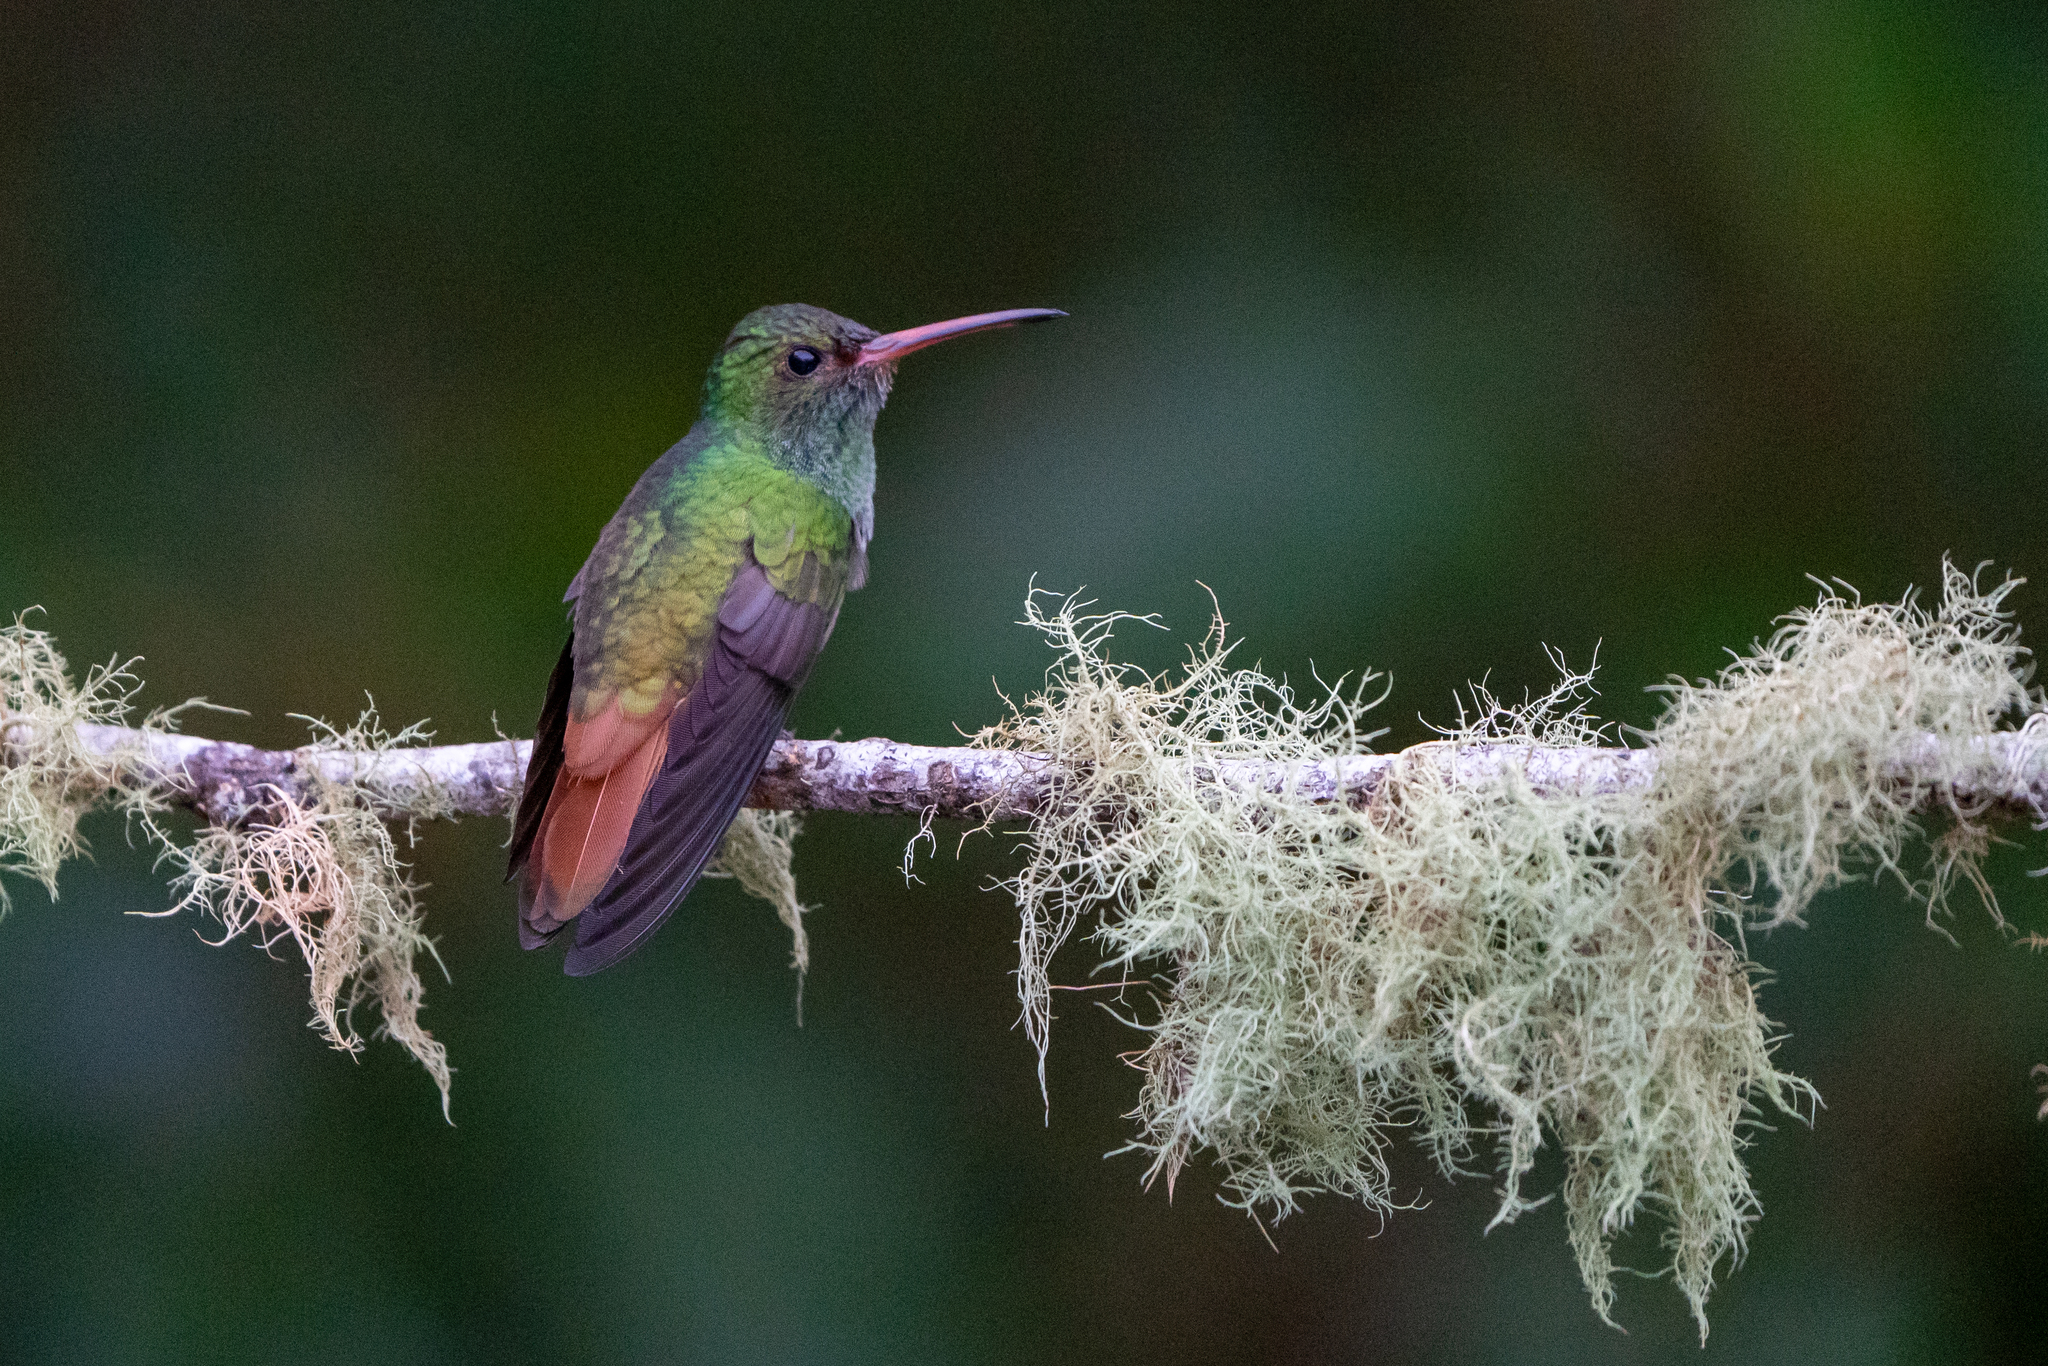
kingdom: Animalia
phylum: Chordata
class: Aves
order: Apodiformes
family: Trochilidae
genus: Amazilia
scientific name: Amazilia tzacatl
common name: Rufous-tailed hummingbird
